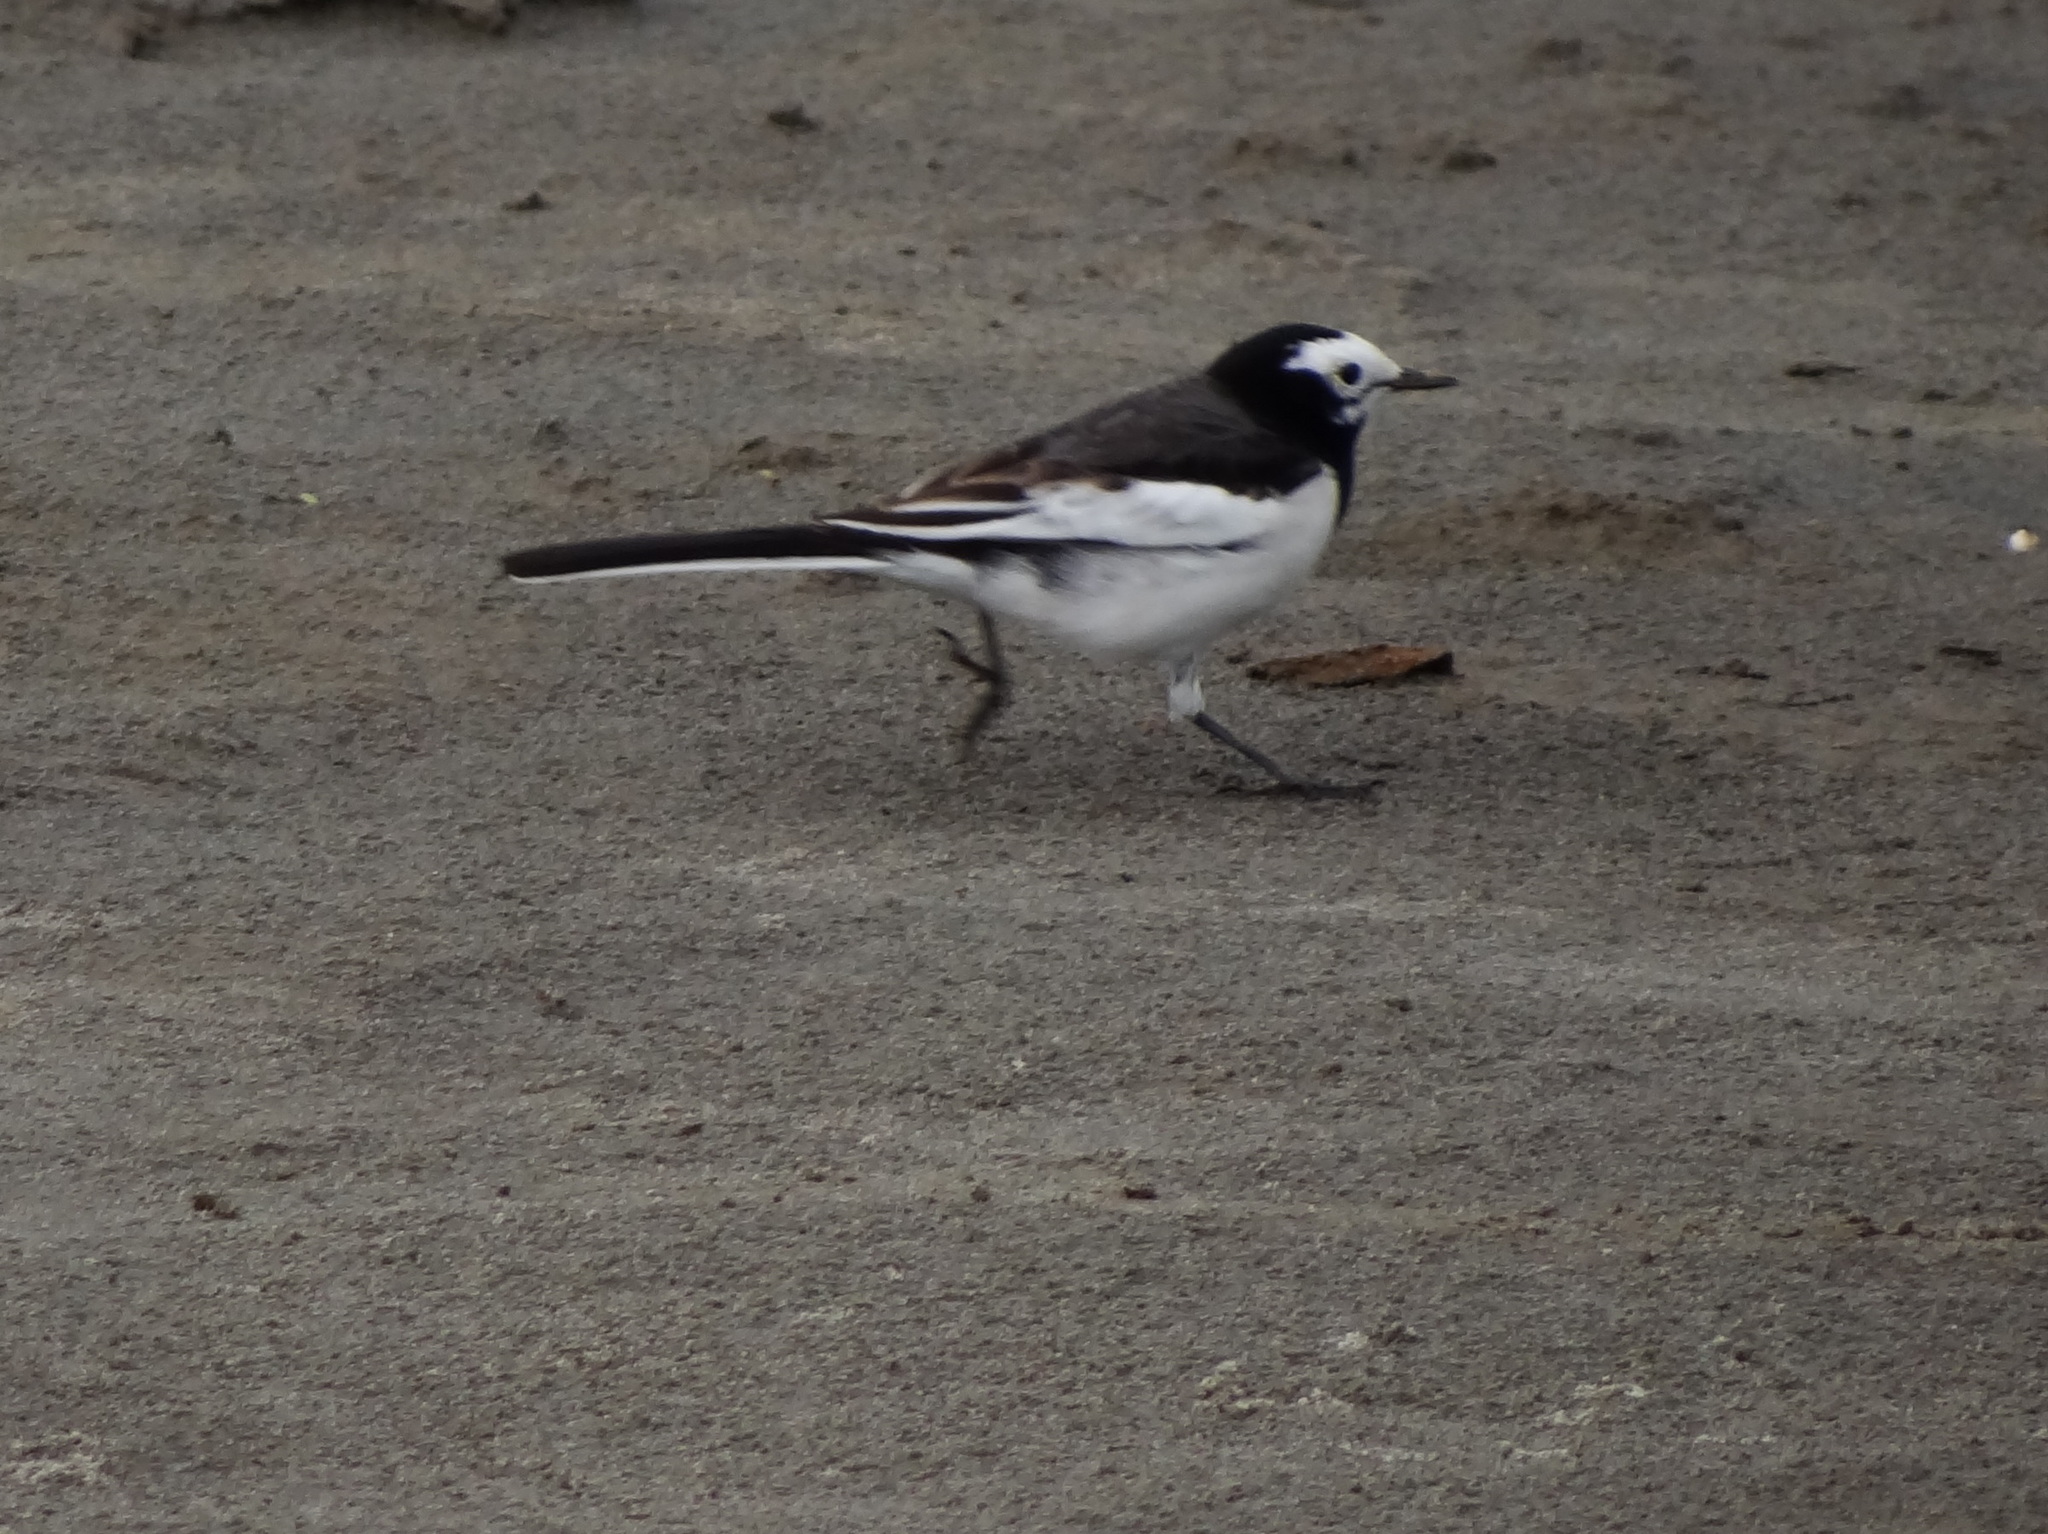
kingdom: Animalia
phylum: Chordata
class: Aves
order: Passeriformes
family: Motacillidae
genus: Motacilla
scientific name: Motacilla alba
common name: White wagtail
